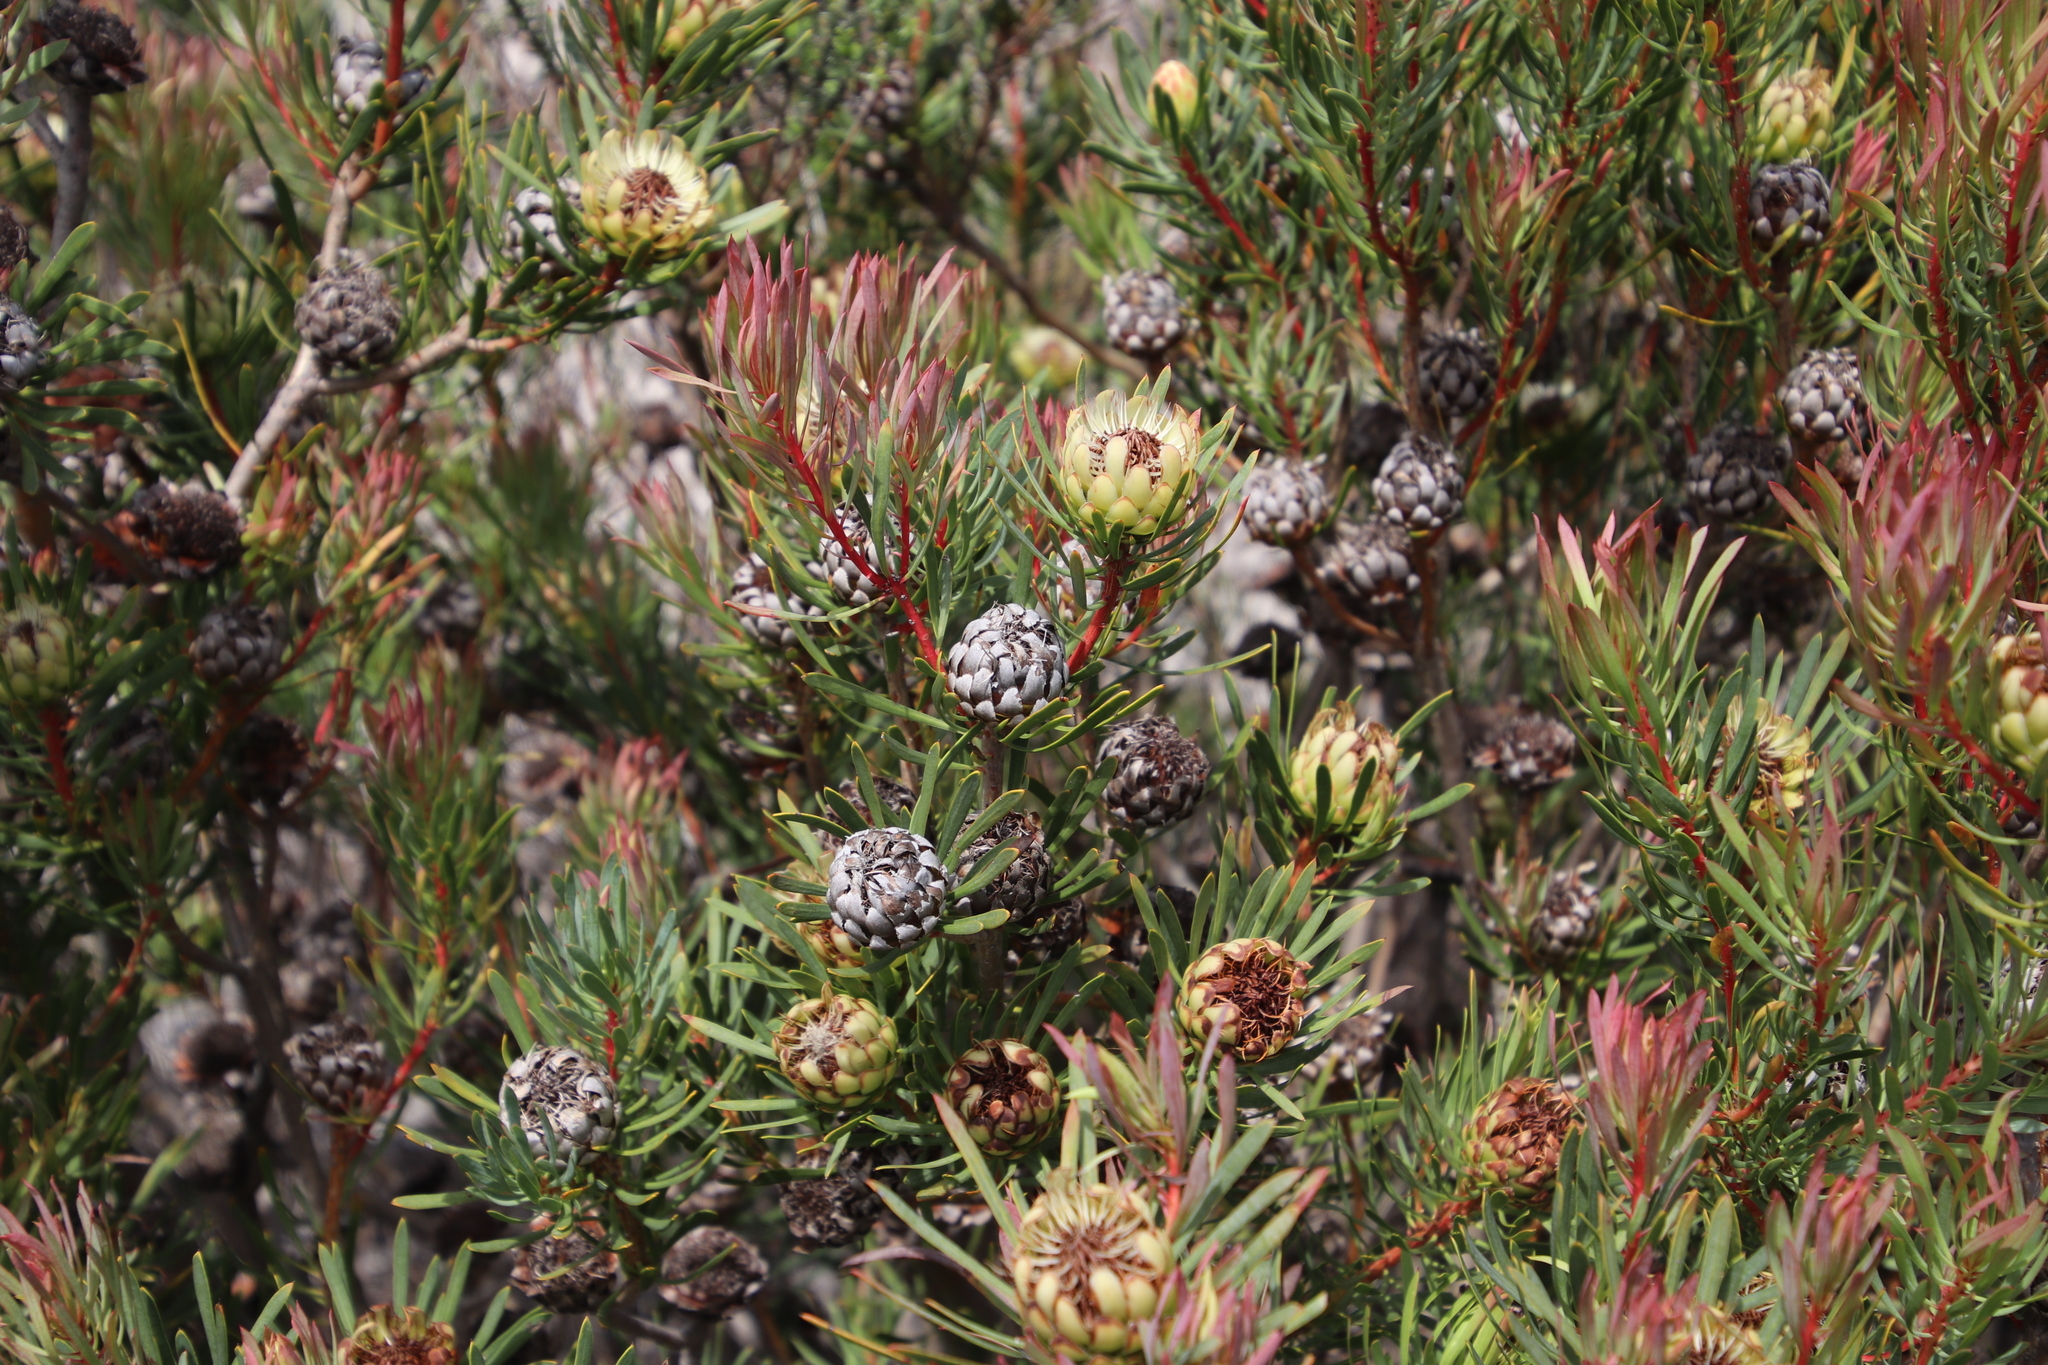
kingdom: Plantae
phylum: Tracheophyta
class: Magnoliopsida
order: Proteales
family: Proteaceae
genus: Protea
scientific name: Protea scolymocephala
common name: Thistle sugarbush
